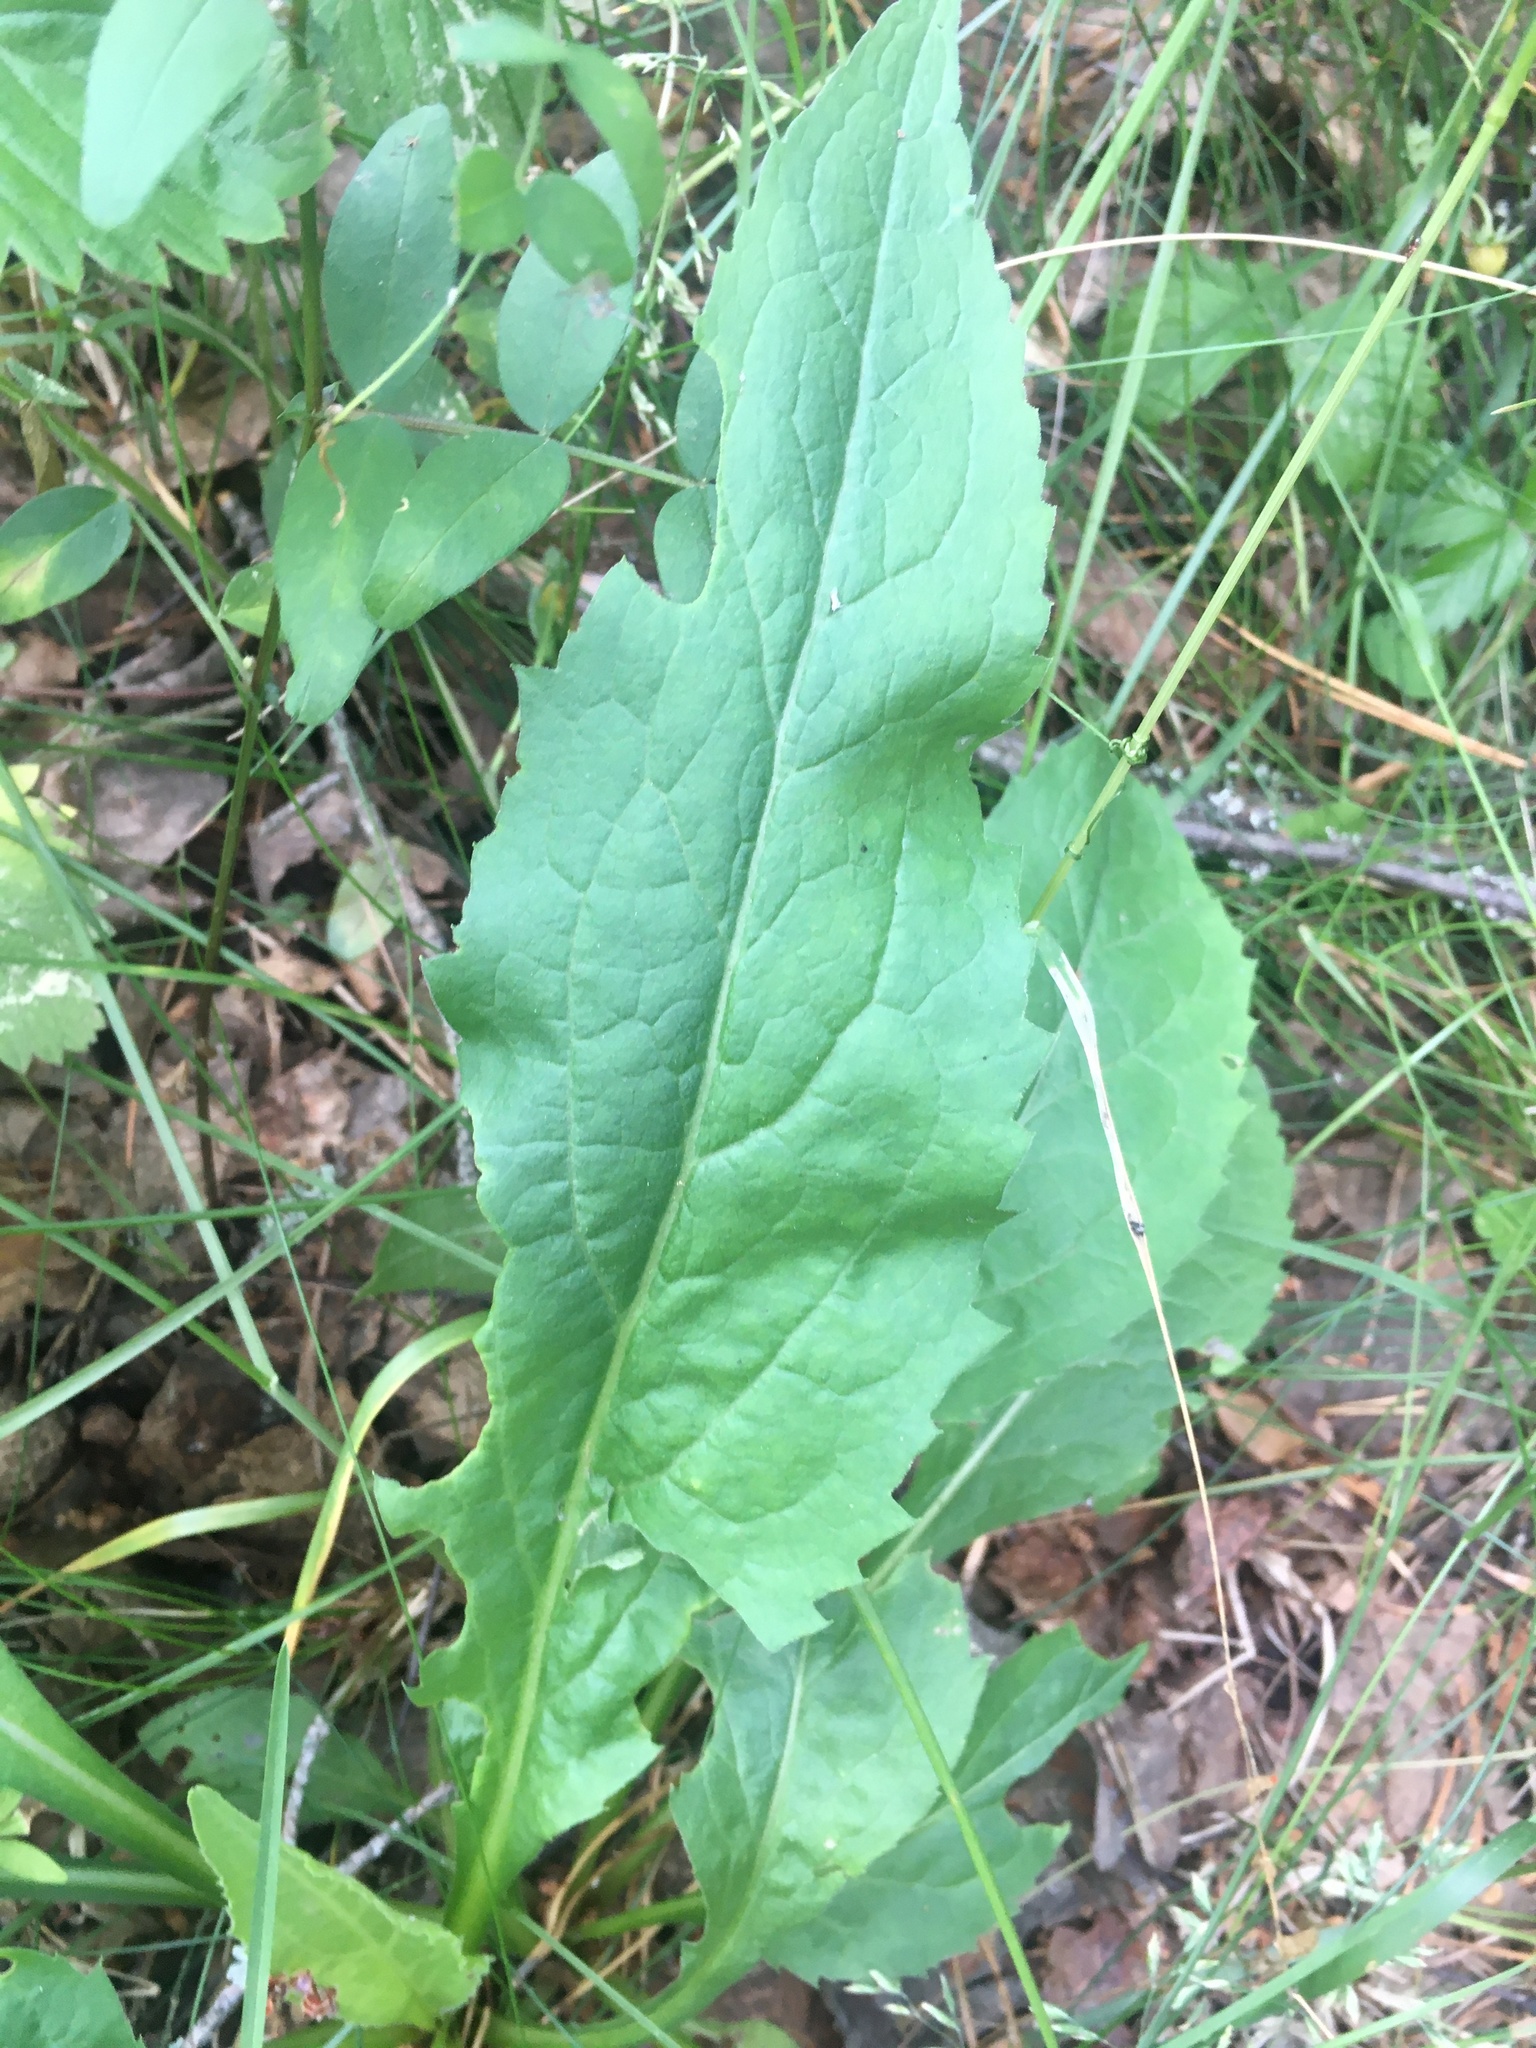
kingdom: Plantae
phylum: Tracheophyta
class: Magnoliopsida
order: Asterales
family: Asteraceae
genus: Solidago
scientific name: Solidago virgaurea
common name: Goldenrod
